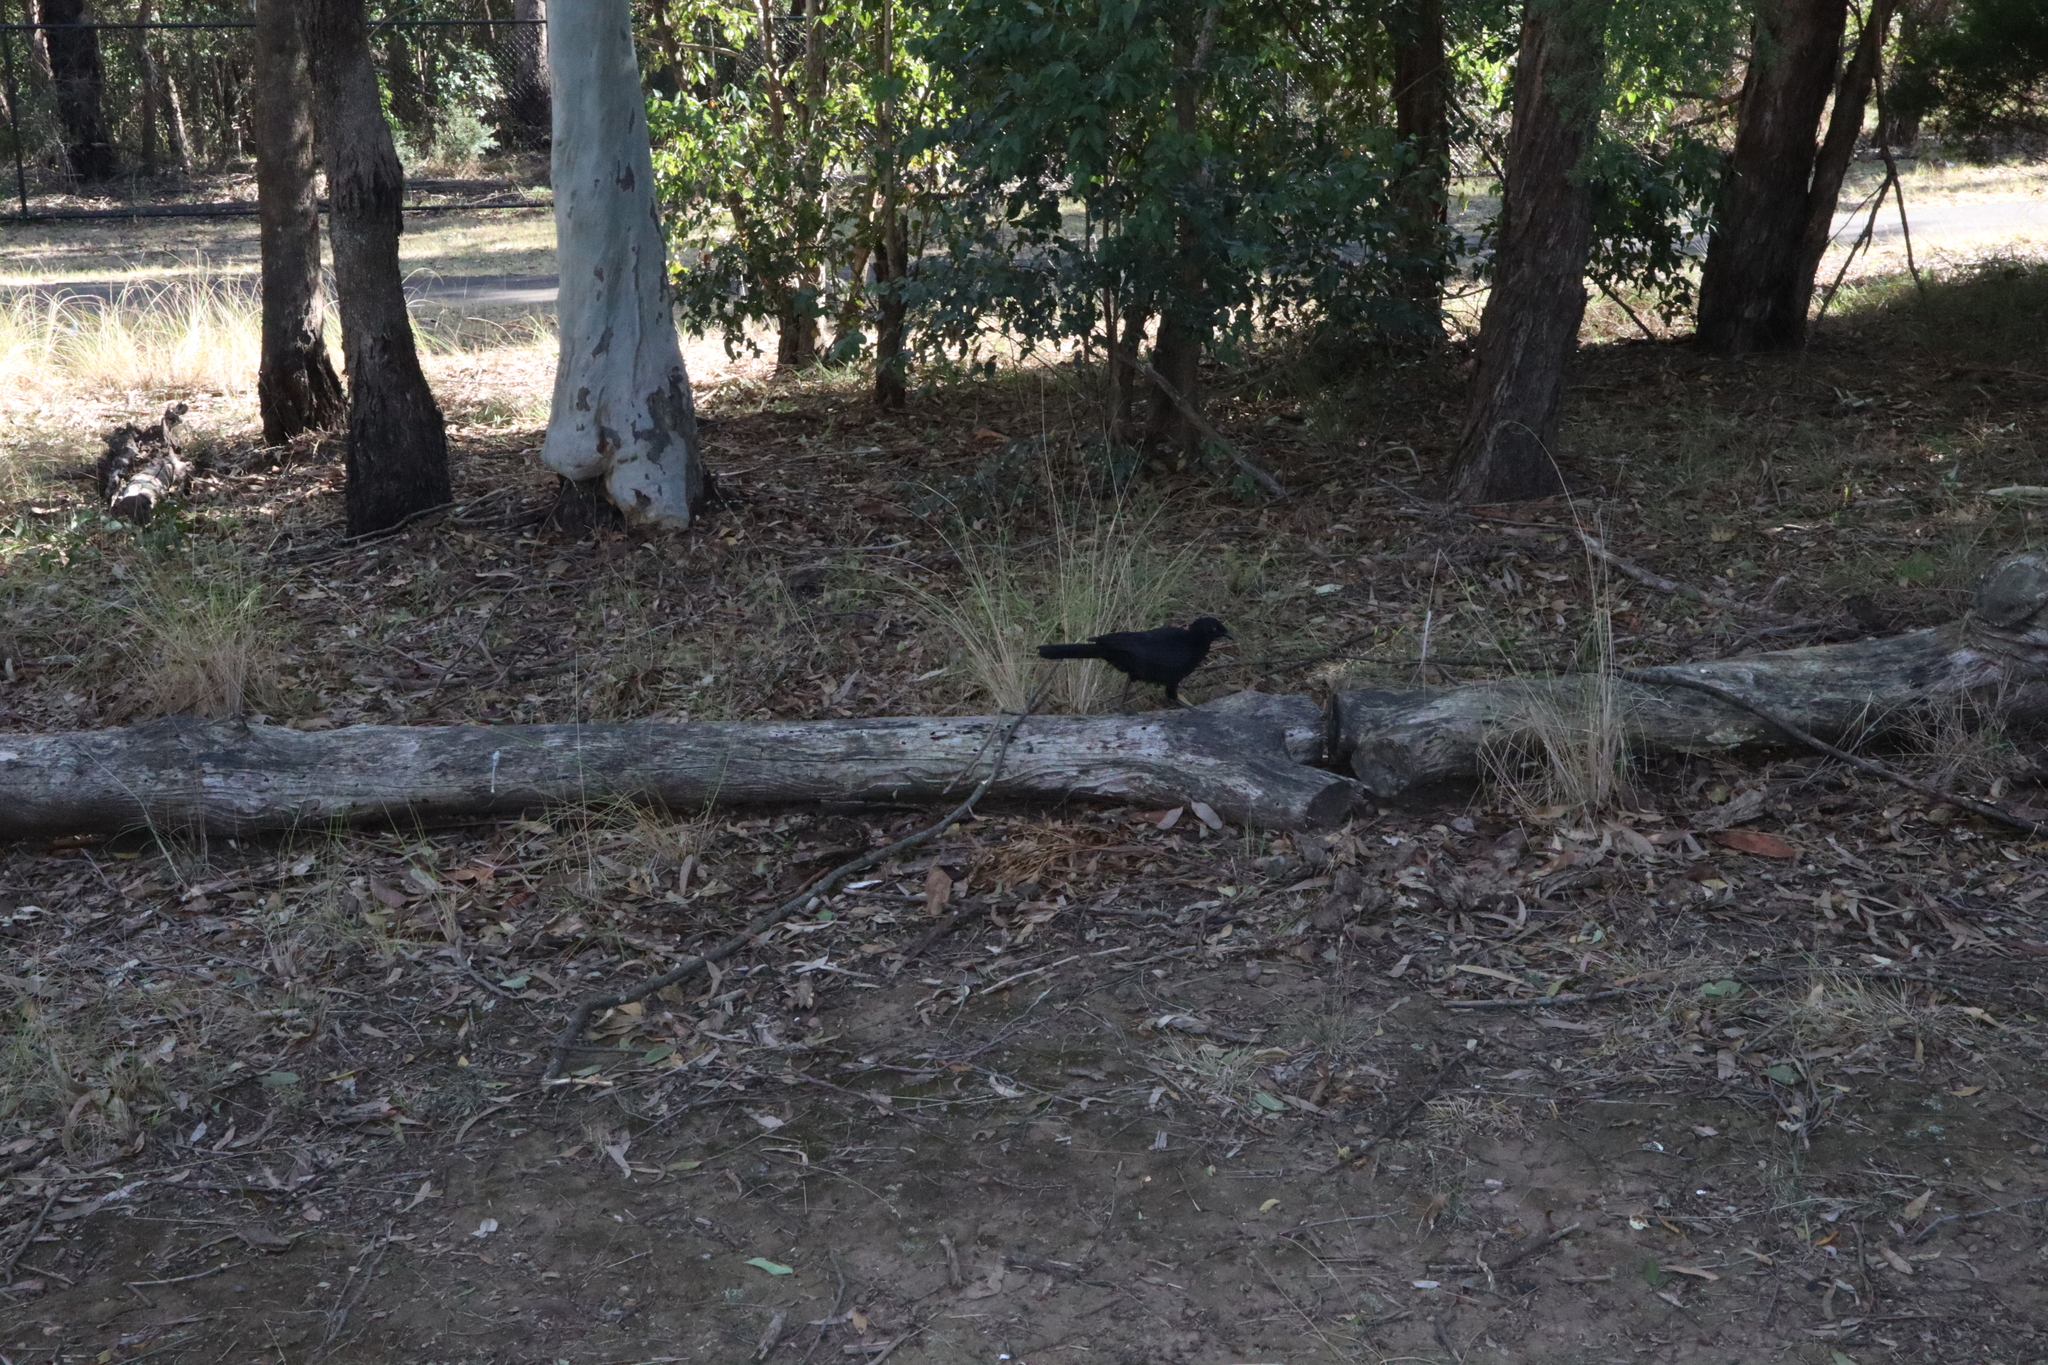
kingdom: Animalia
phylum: Chordata
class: Aves
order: Passeriformes
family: Corcoracidae
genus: Corcorax
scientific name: Corcorax melanoramphos
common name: White-winged chough
